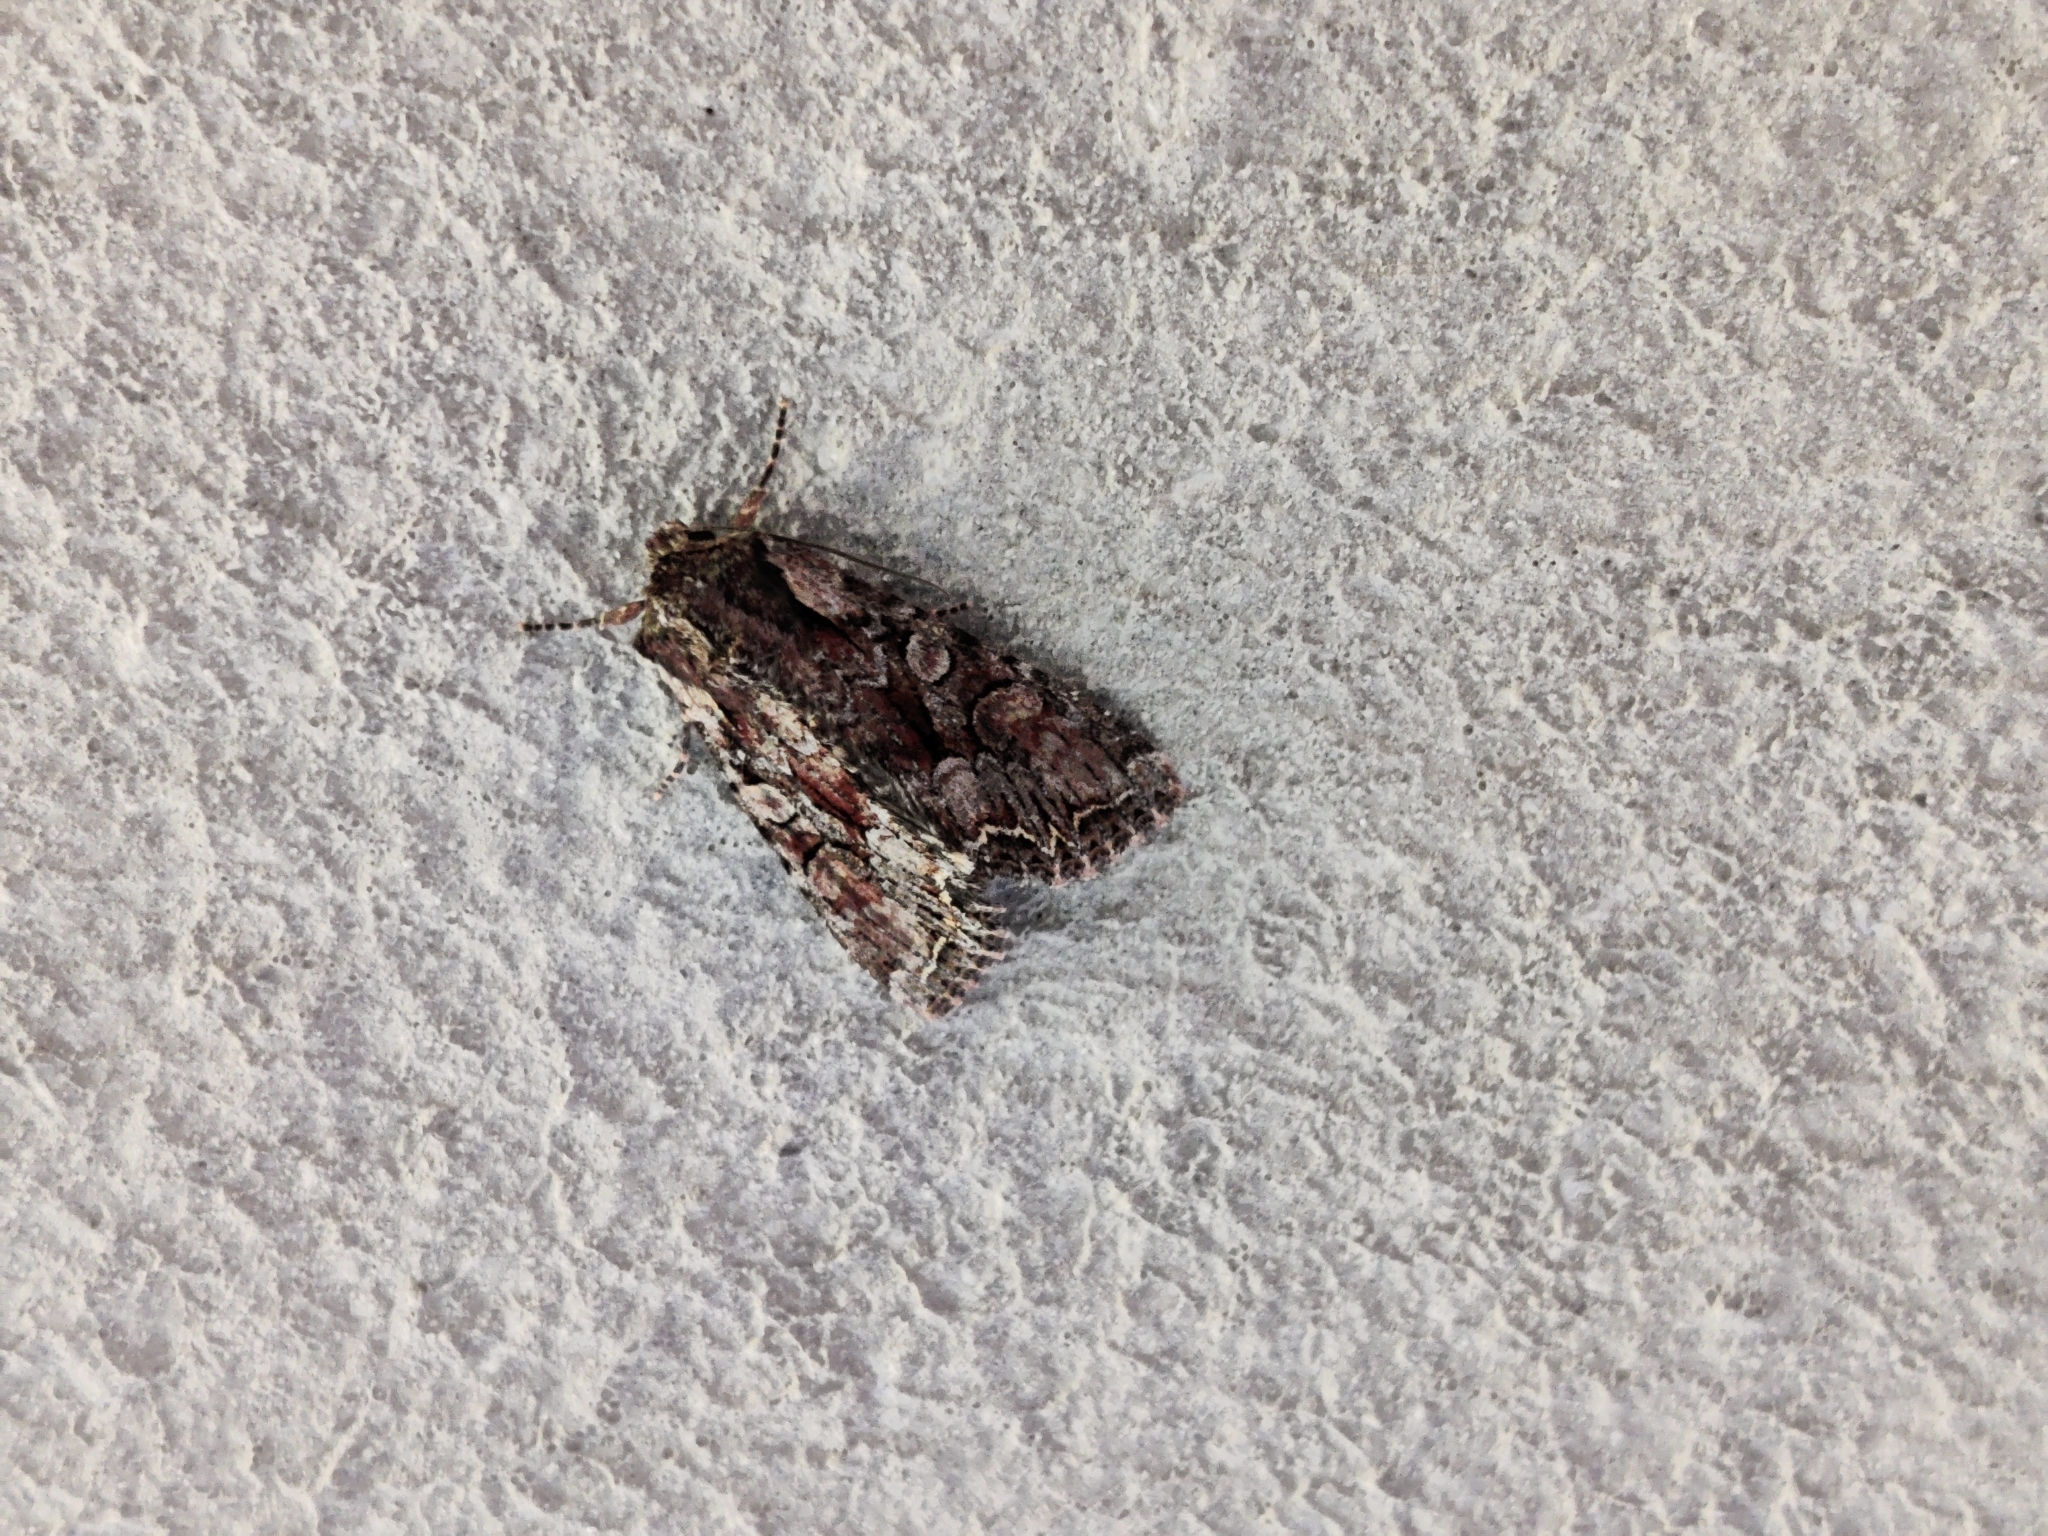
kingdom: Animalia
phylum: Arthropoda
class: Insecta
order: Lepidoptera
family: Noctuidae
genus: Lacanobia
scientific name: Lacanobia thalassina
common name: Pale-shouldered brocade
